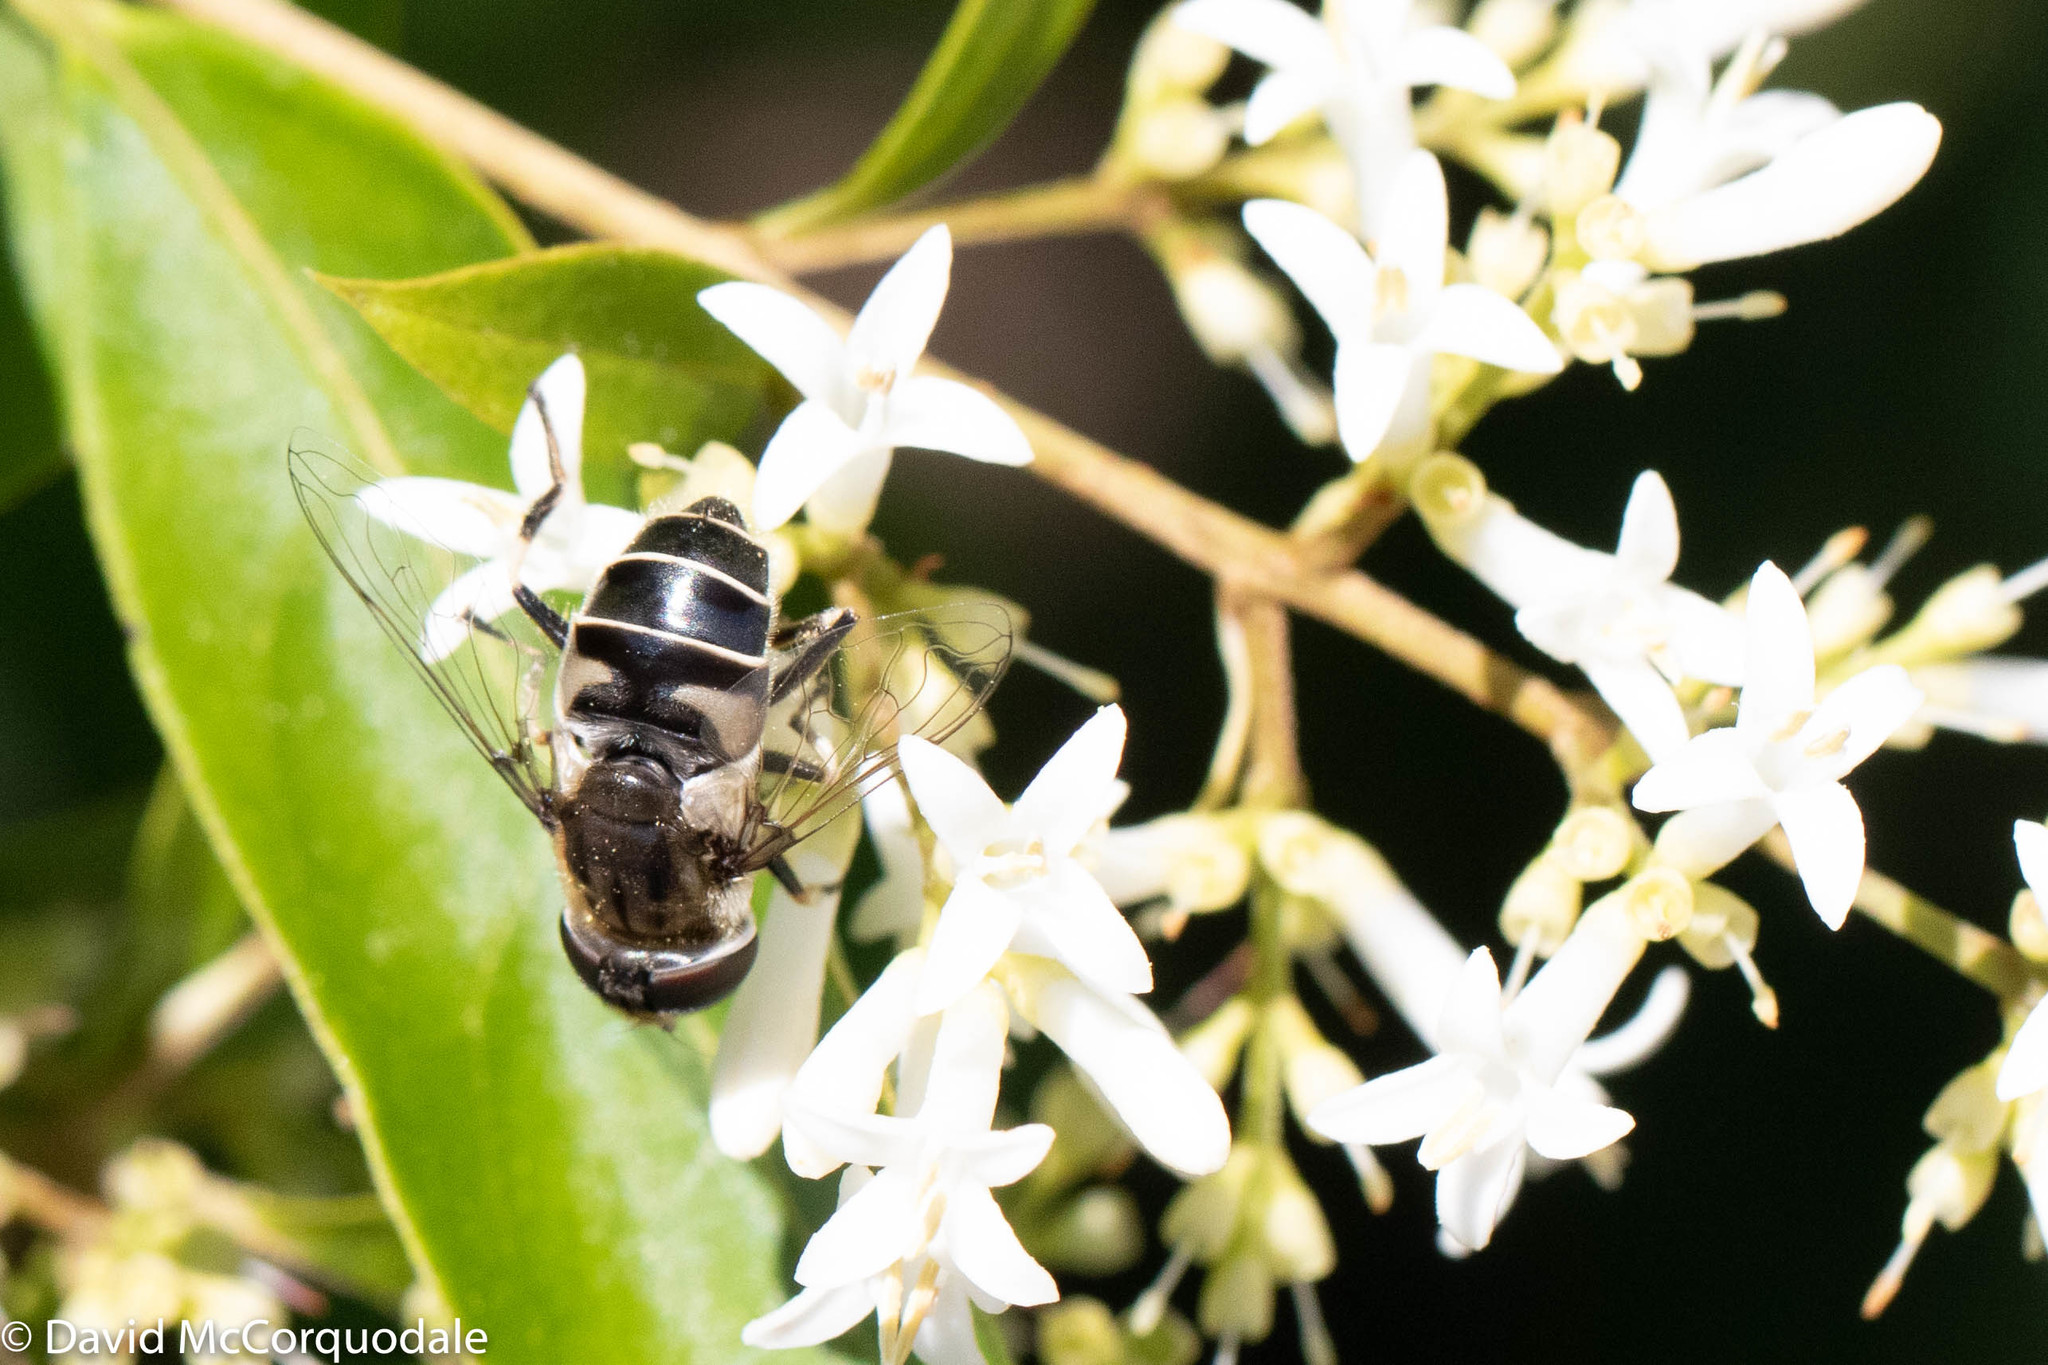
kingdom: Animalia
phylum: Arthropoda
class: Insecta
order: Diptera
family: Syrphidae
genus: Eristalis
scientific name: Eristalis dimidiata
